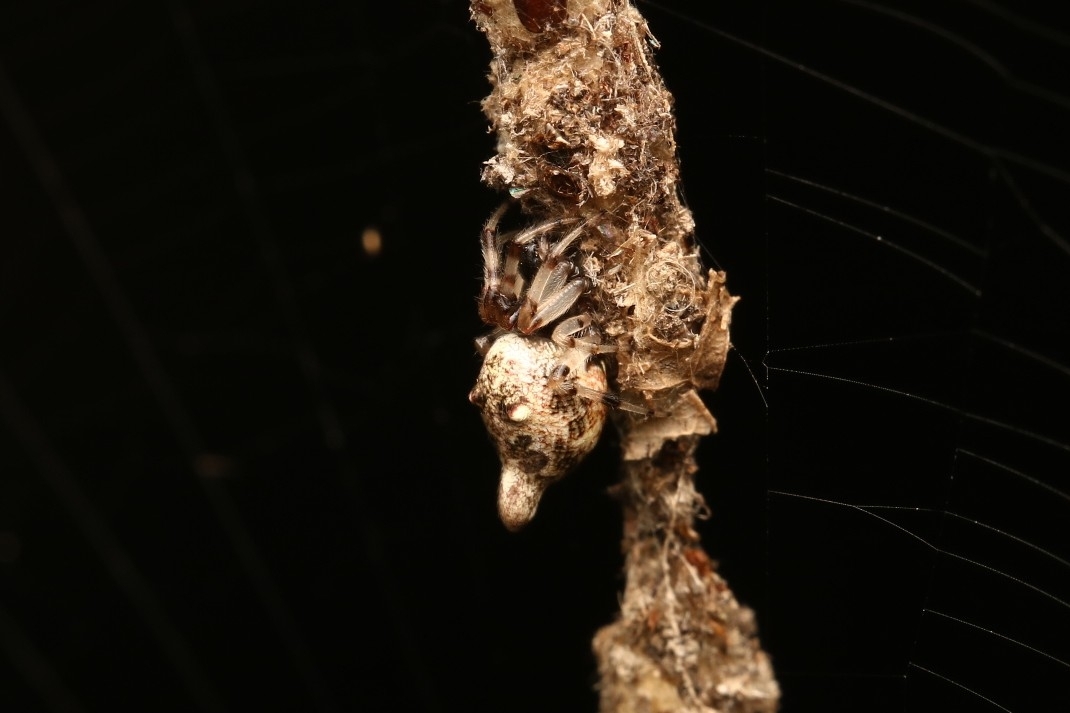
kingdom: Animalia
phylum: Arthropoda
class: Arachnida
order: Araneae
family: Araneidae
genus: Cyclosa
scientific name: Cyclosa turbinata
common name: Orb weavers
